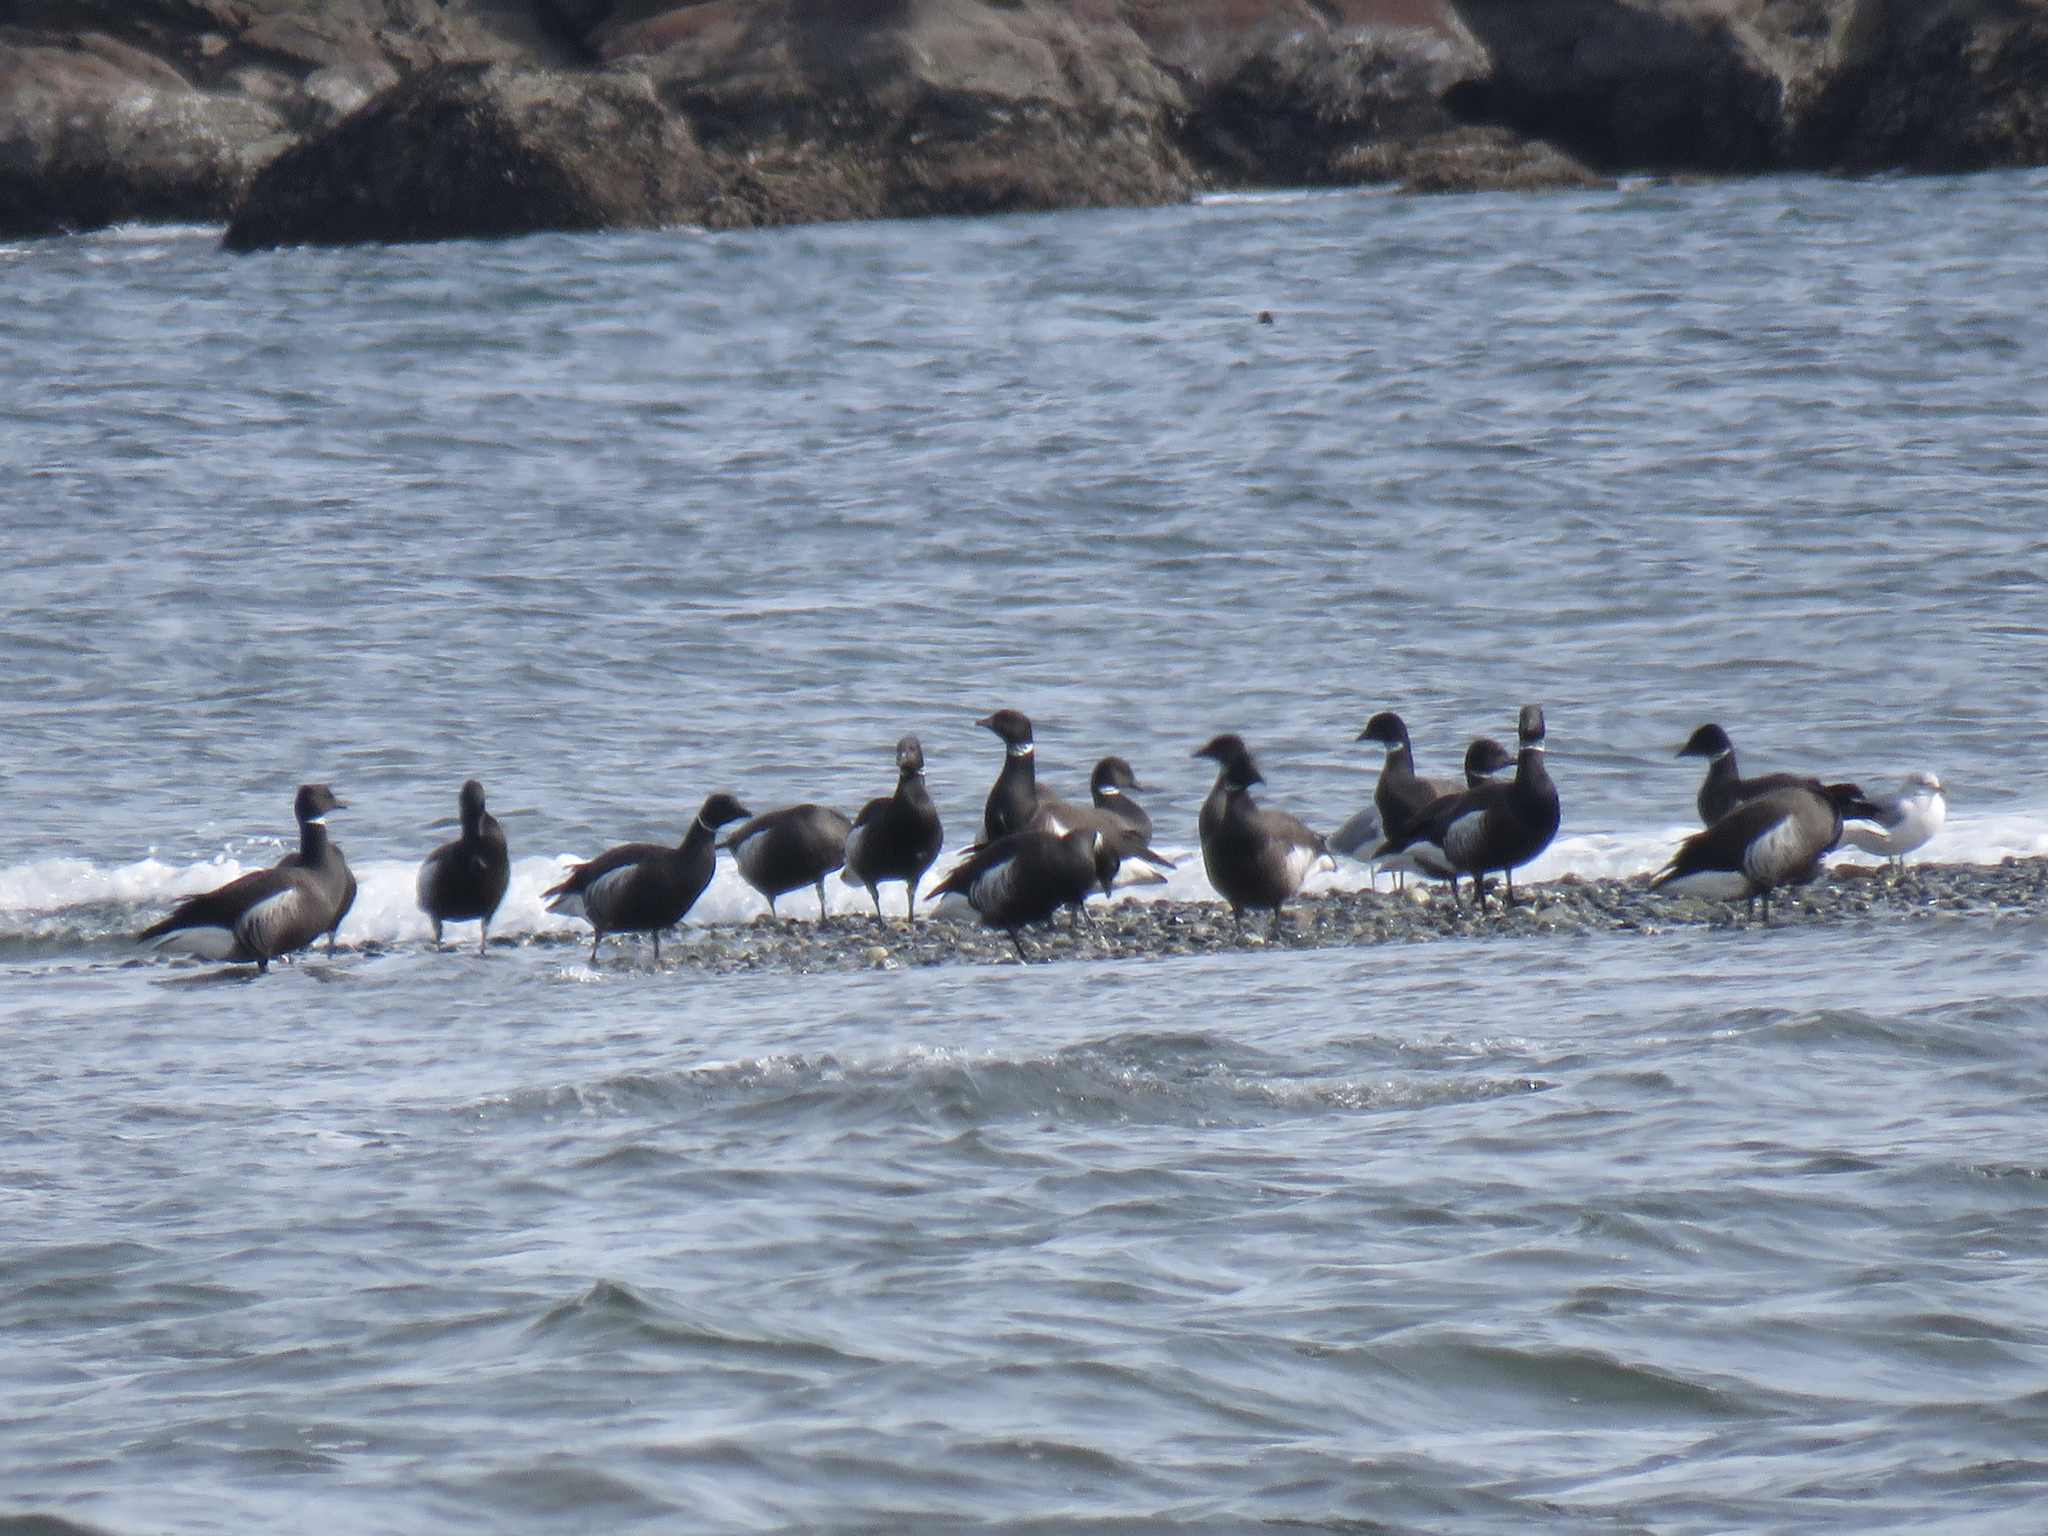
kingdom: Animalia
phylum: Chordata
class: Aves
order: Anseriformes
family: Anatidae
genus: Branta
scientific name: Branta bernicla
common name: Brant goose
